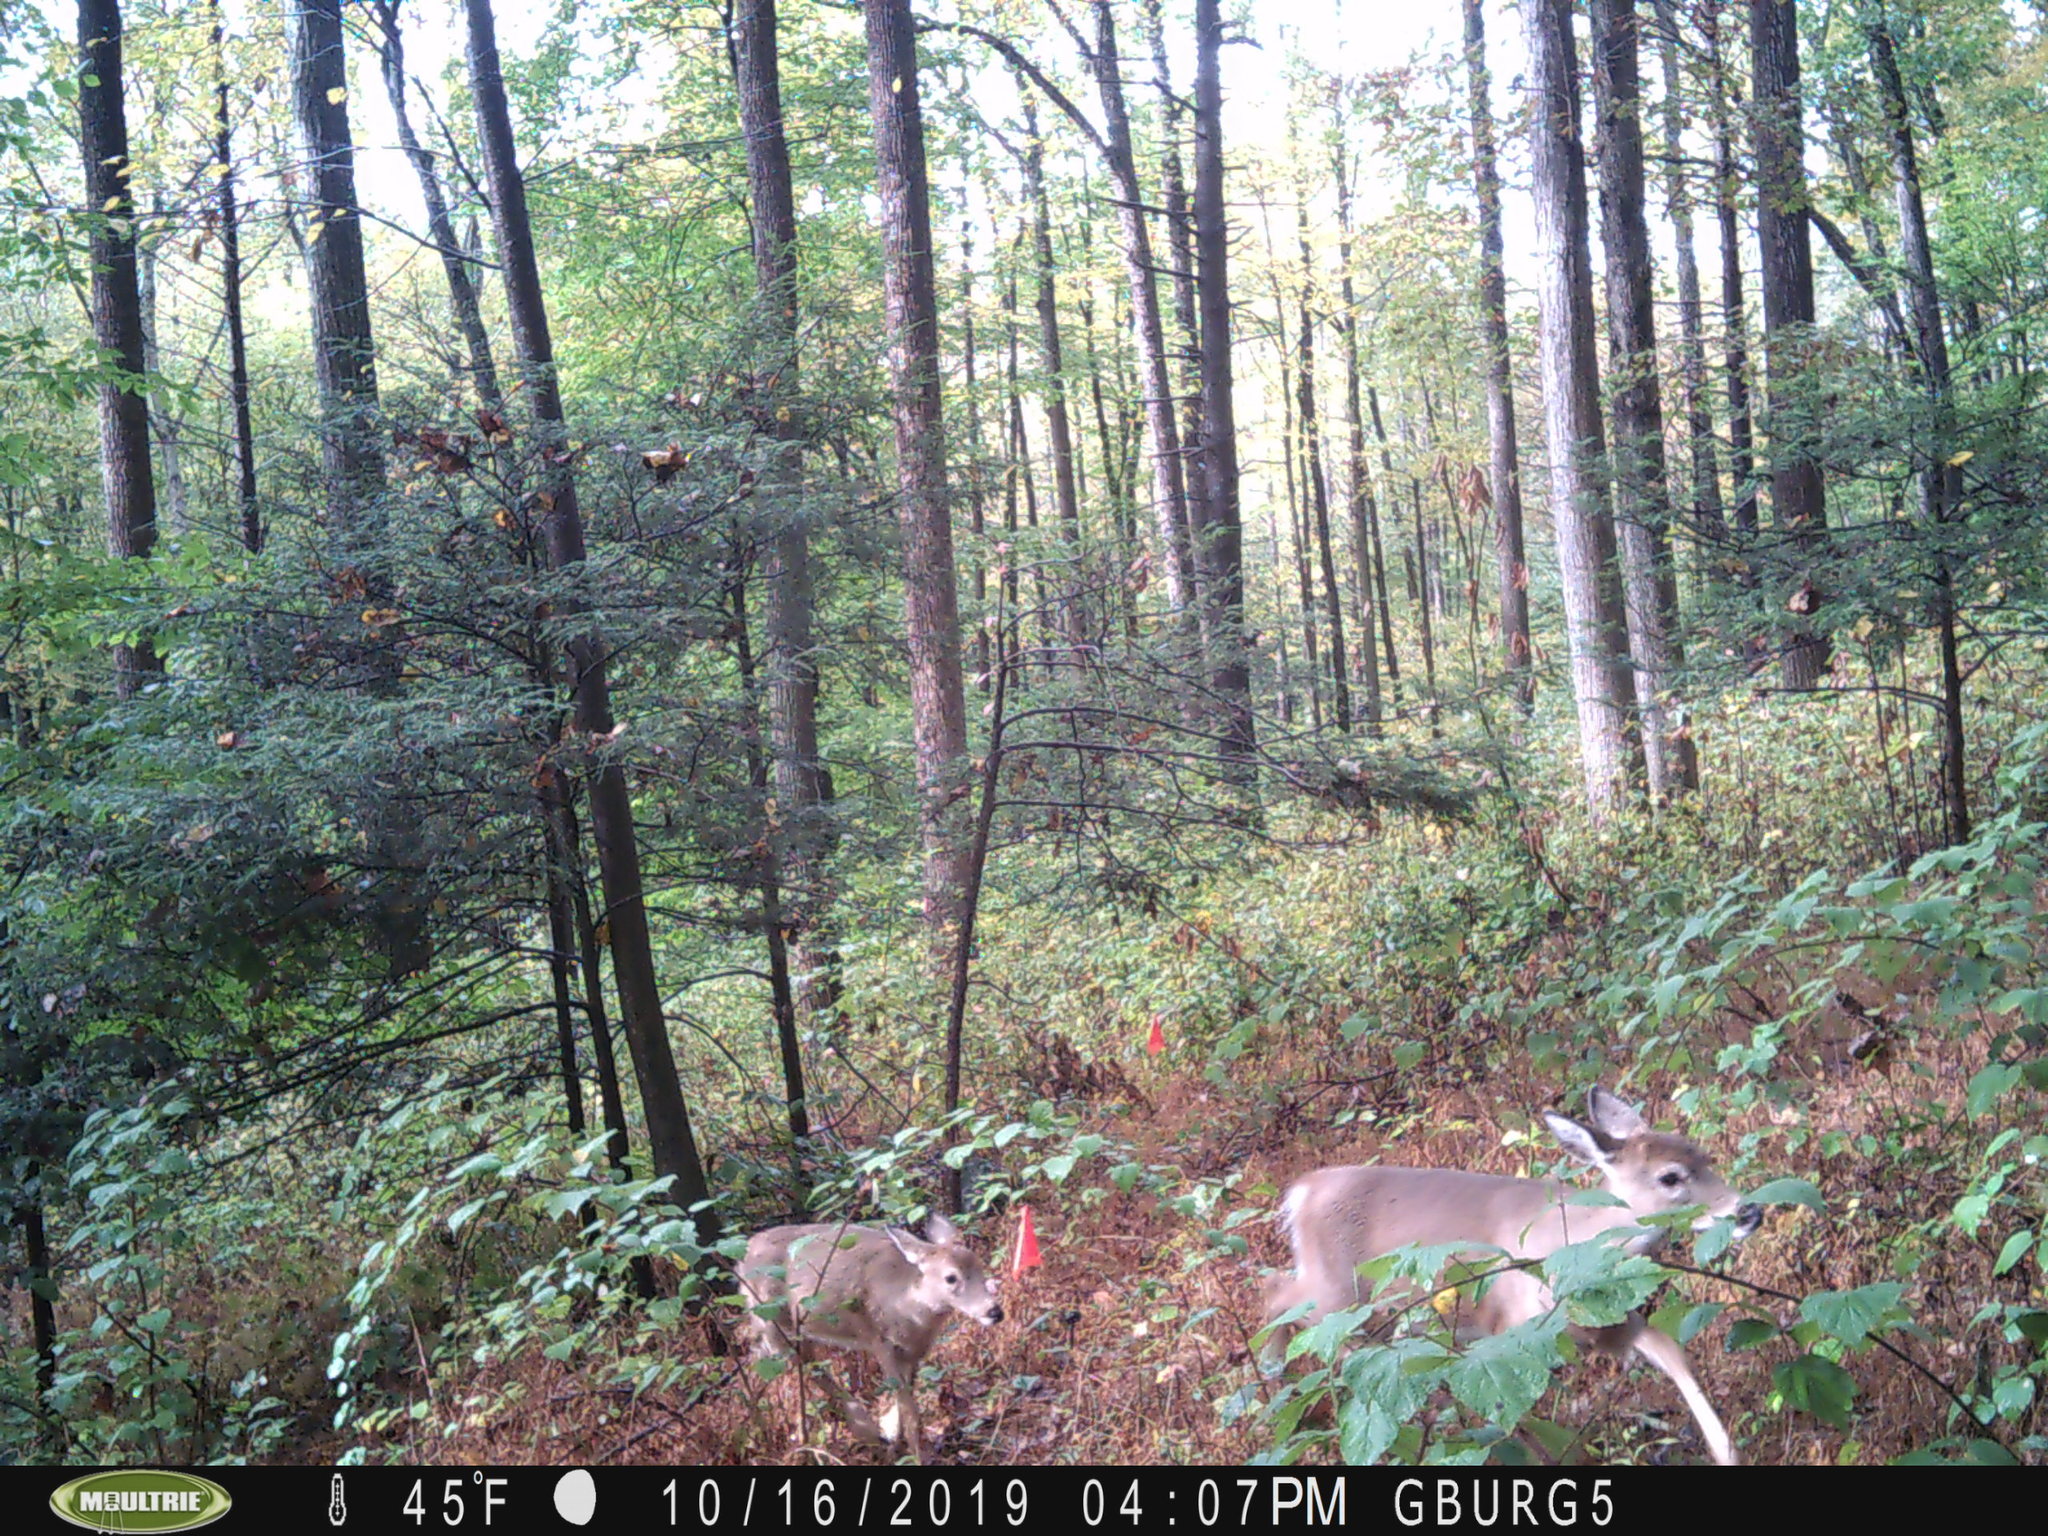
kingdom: Animalia
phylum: Chordata
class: Mammalia
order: Artiodactyla
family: Cervidae
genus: Odocoileus
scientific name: Odocoileus virginianus
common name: White-tailed deer
